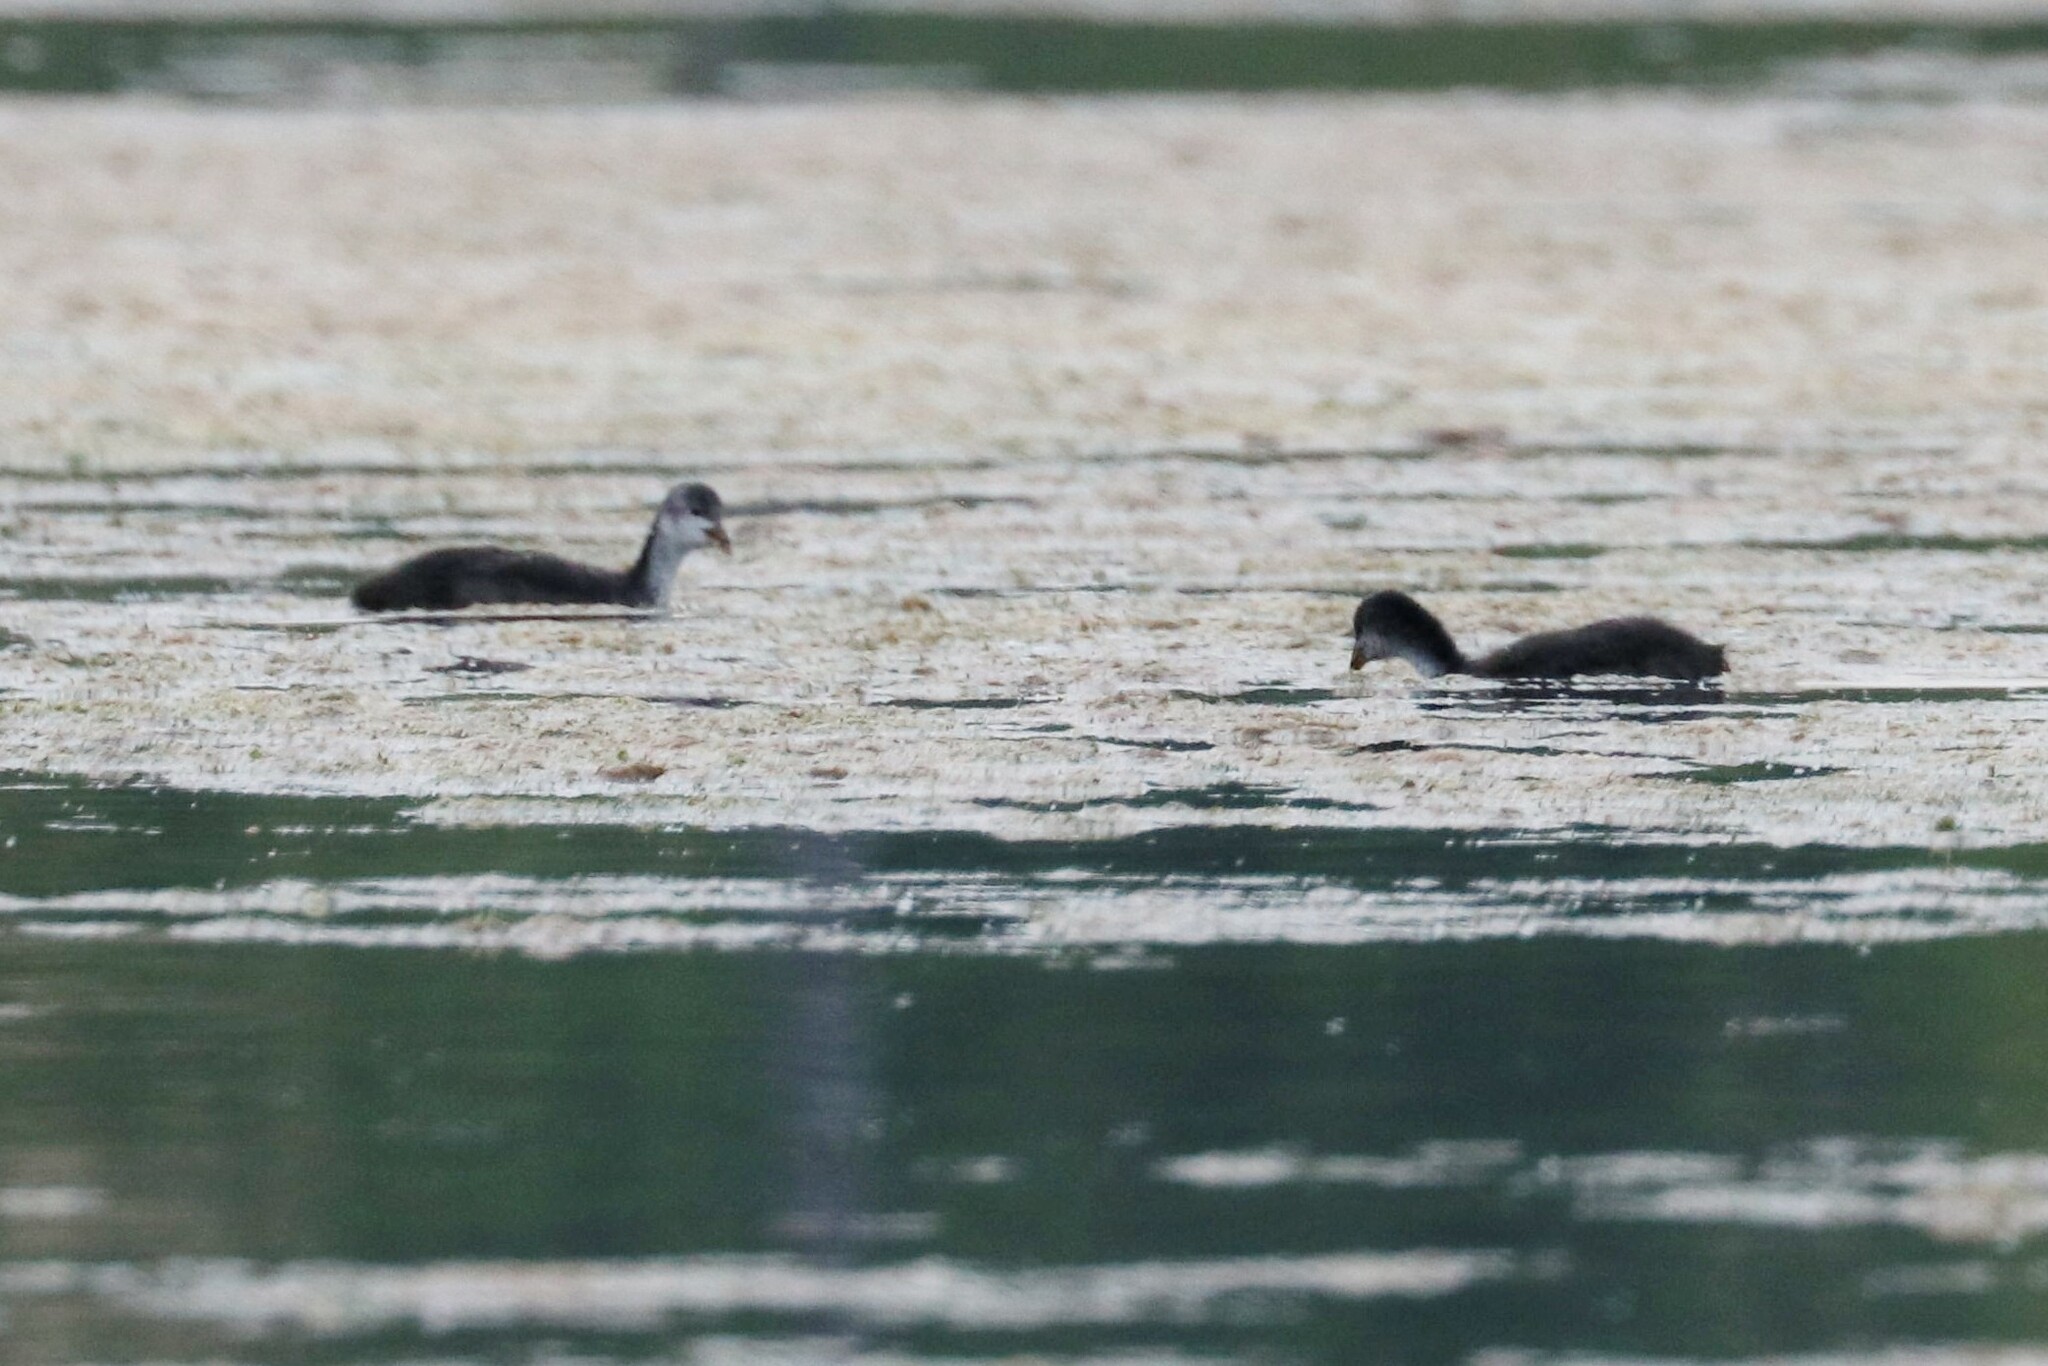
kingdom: Animalia
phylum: Chordata
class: Aves
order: Gruiformes
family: Rallidae
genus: Fulica
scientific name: Fulica atra
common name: Eurasian coot
